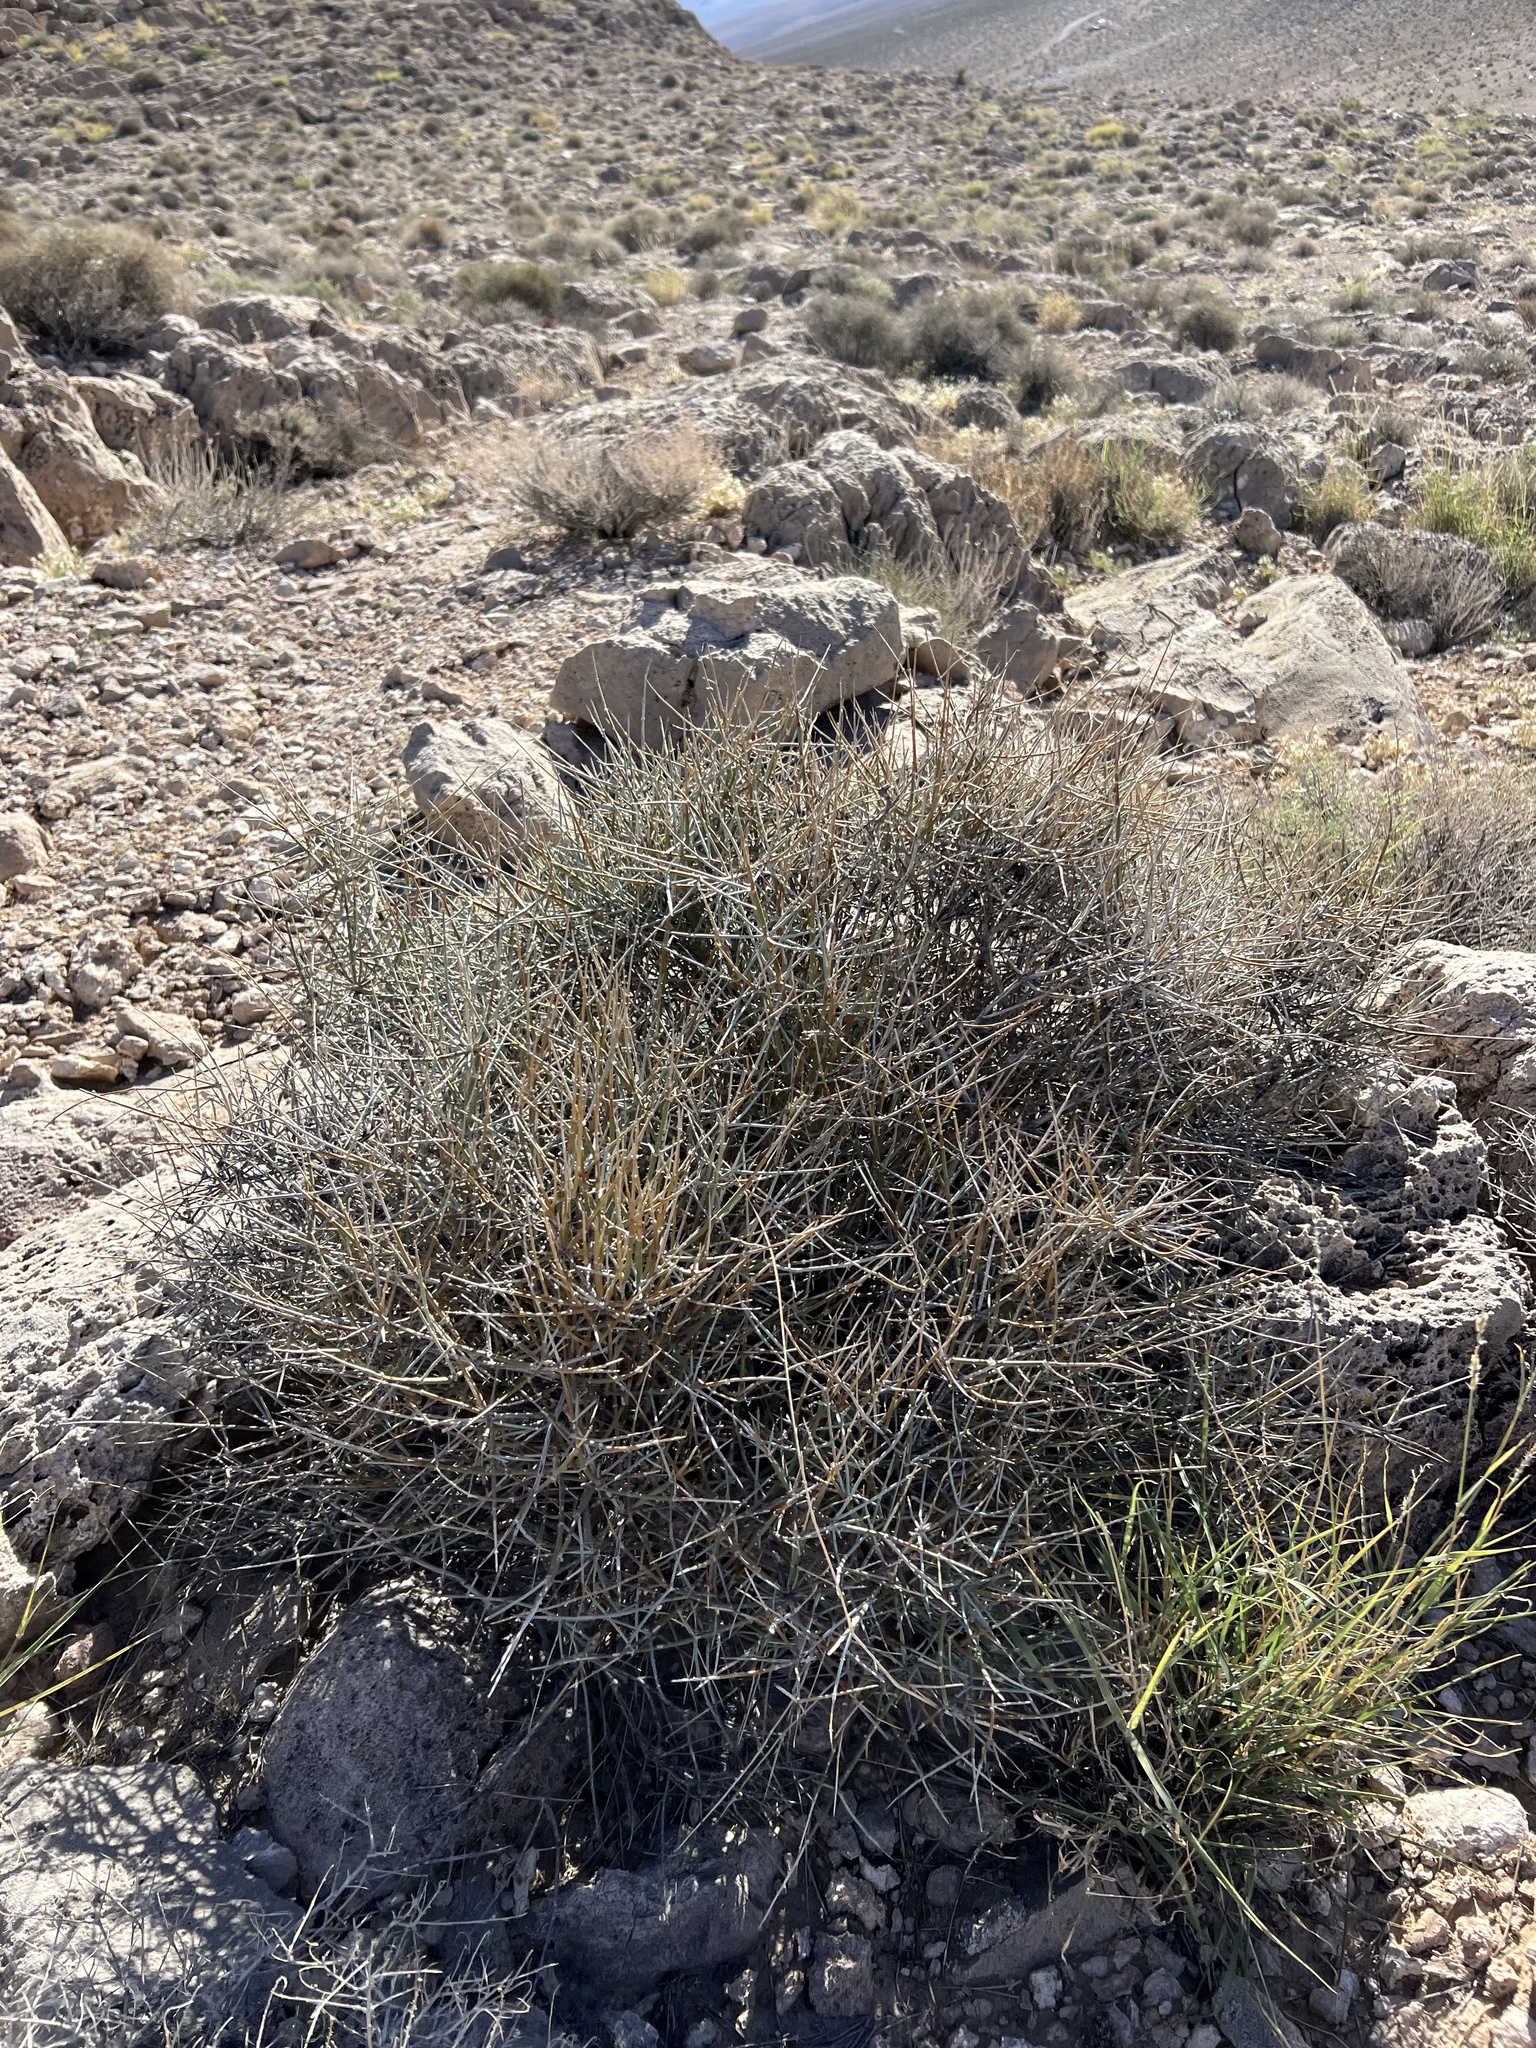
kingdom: Plantae
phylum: Tracheophyta
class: Gnetopsida
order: Ephedrales
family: Ephedraceae
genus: Ephedra
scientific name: Ephedra nevadensis
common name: Gray ephedra
